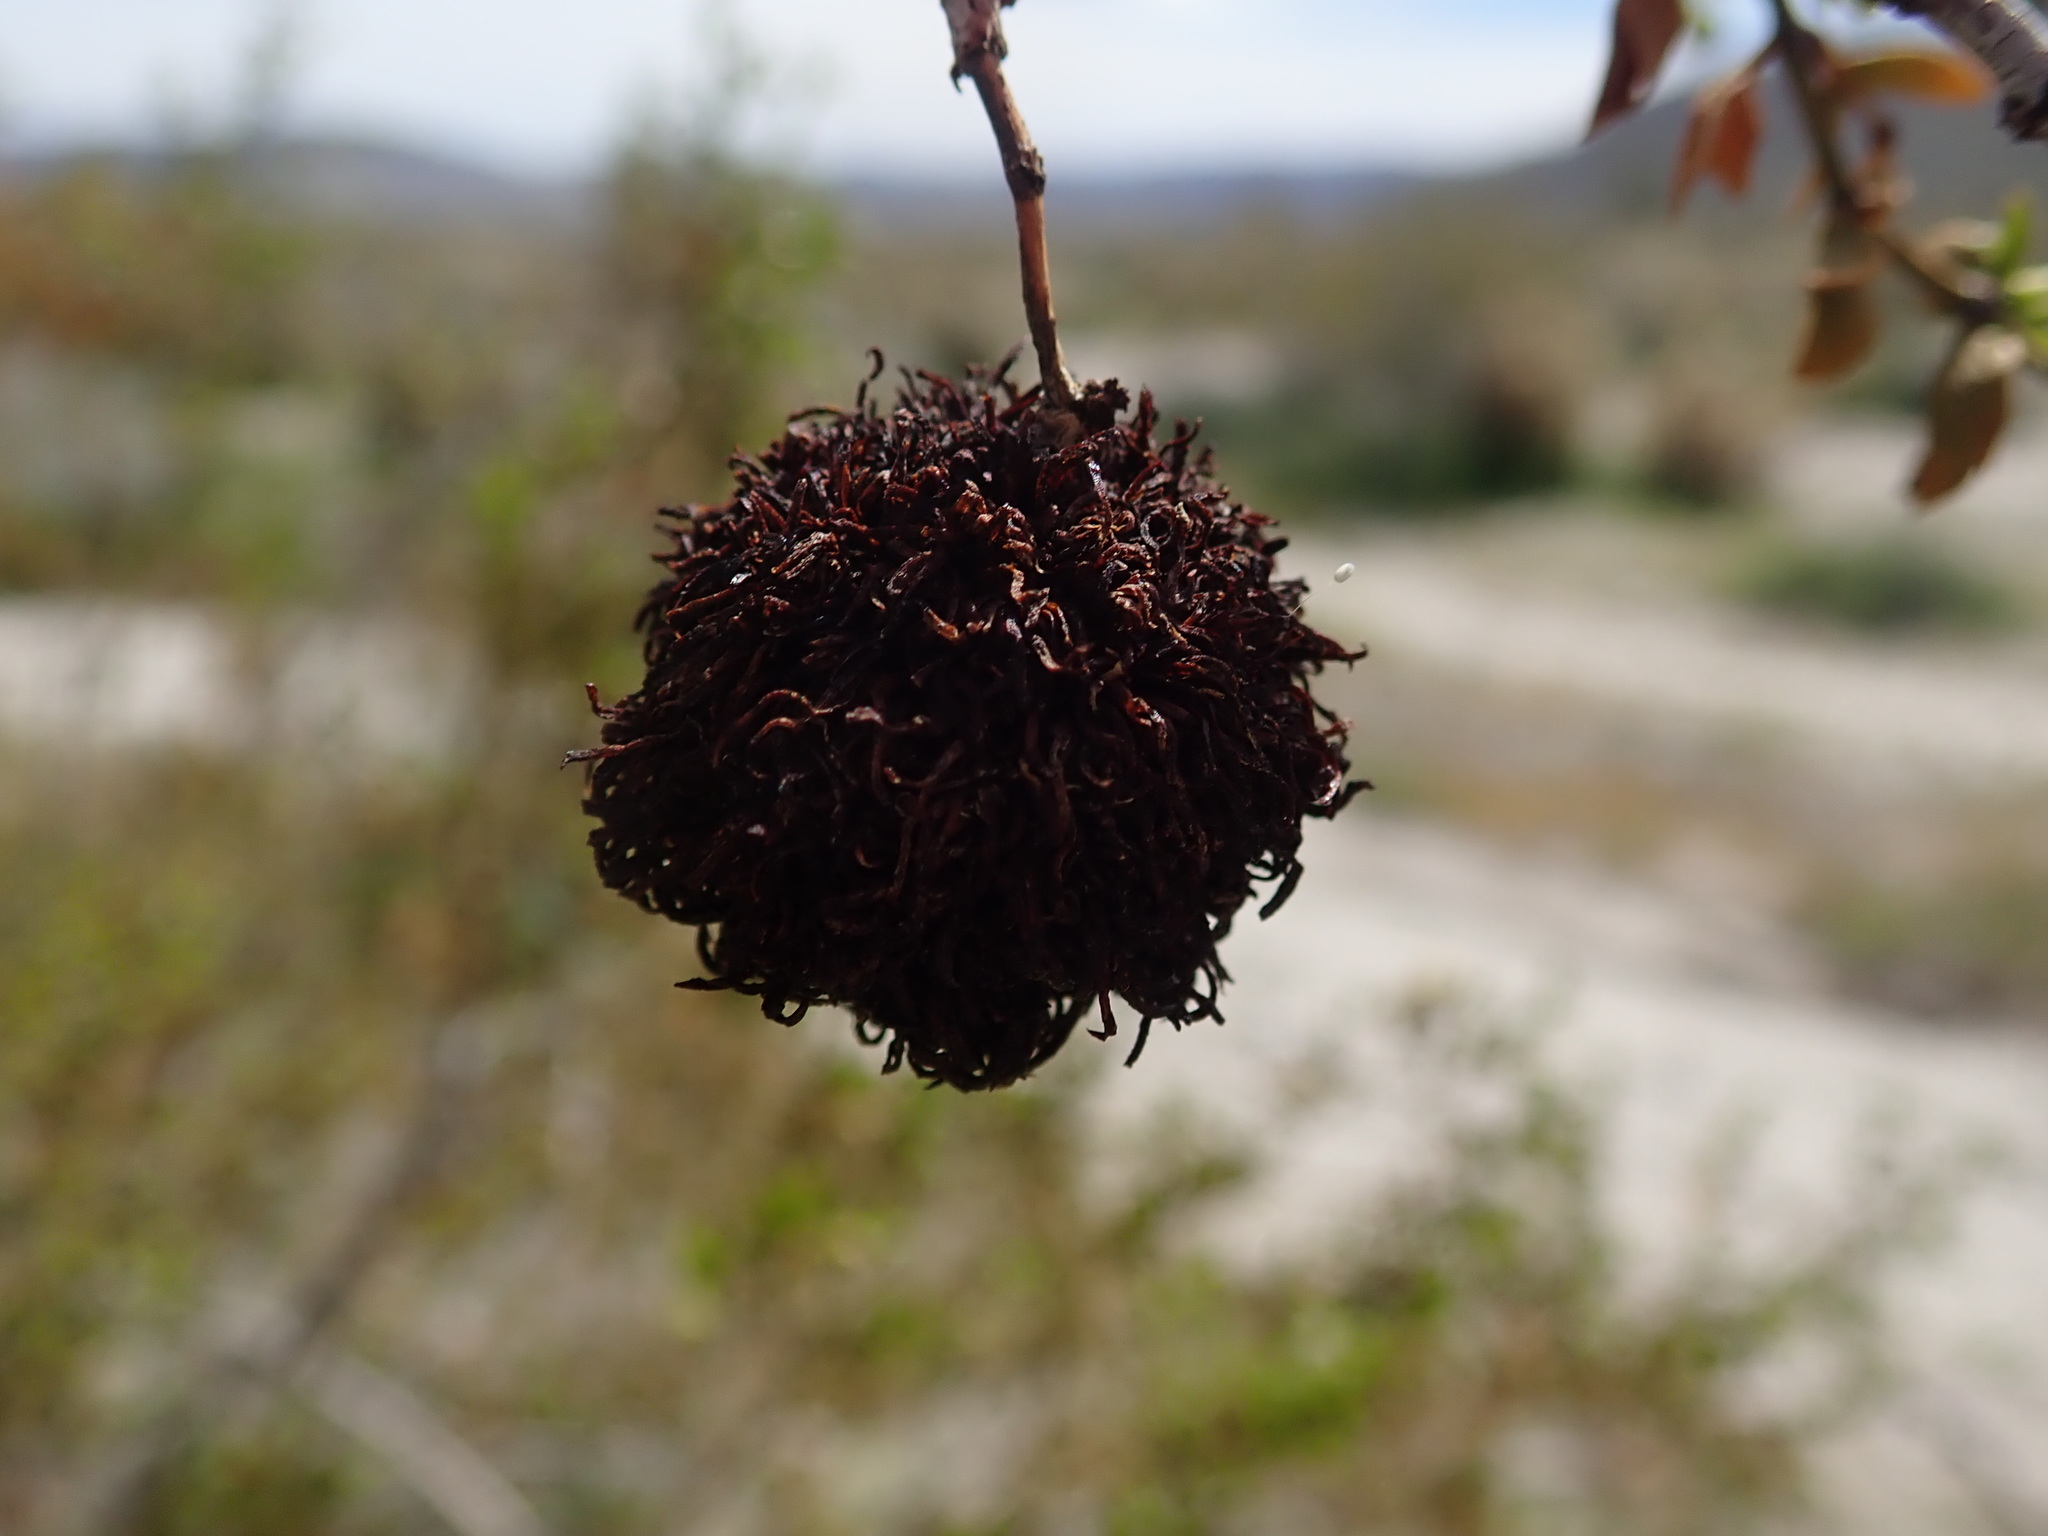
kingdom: Animalia
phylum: Arthropoda
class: Insecta
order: Diptera
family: Cecidomyiidae
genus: Asphondylia
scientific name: Asphondylia auripila
